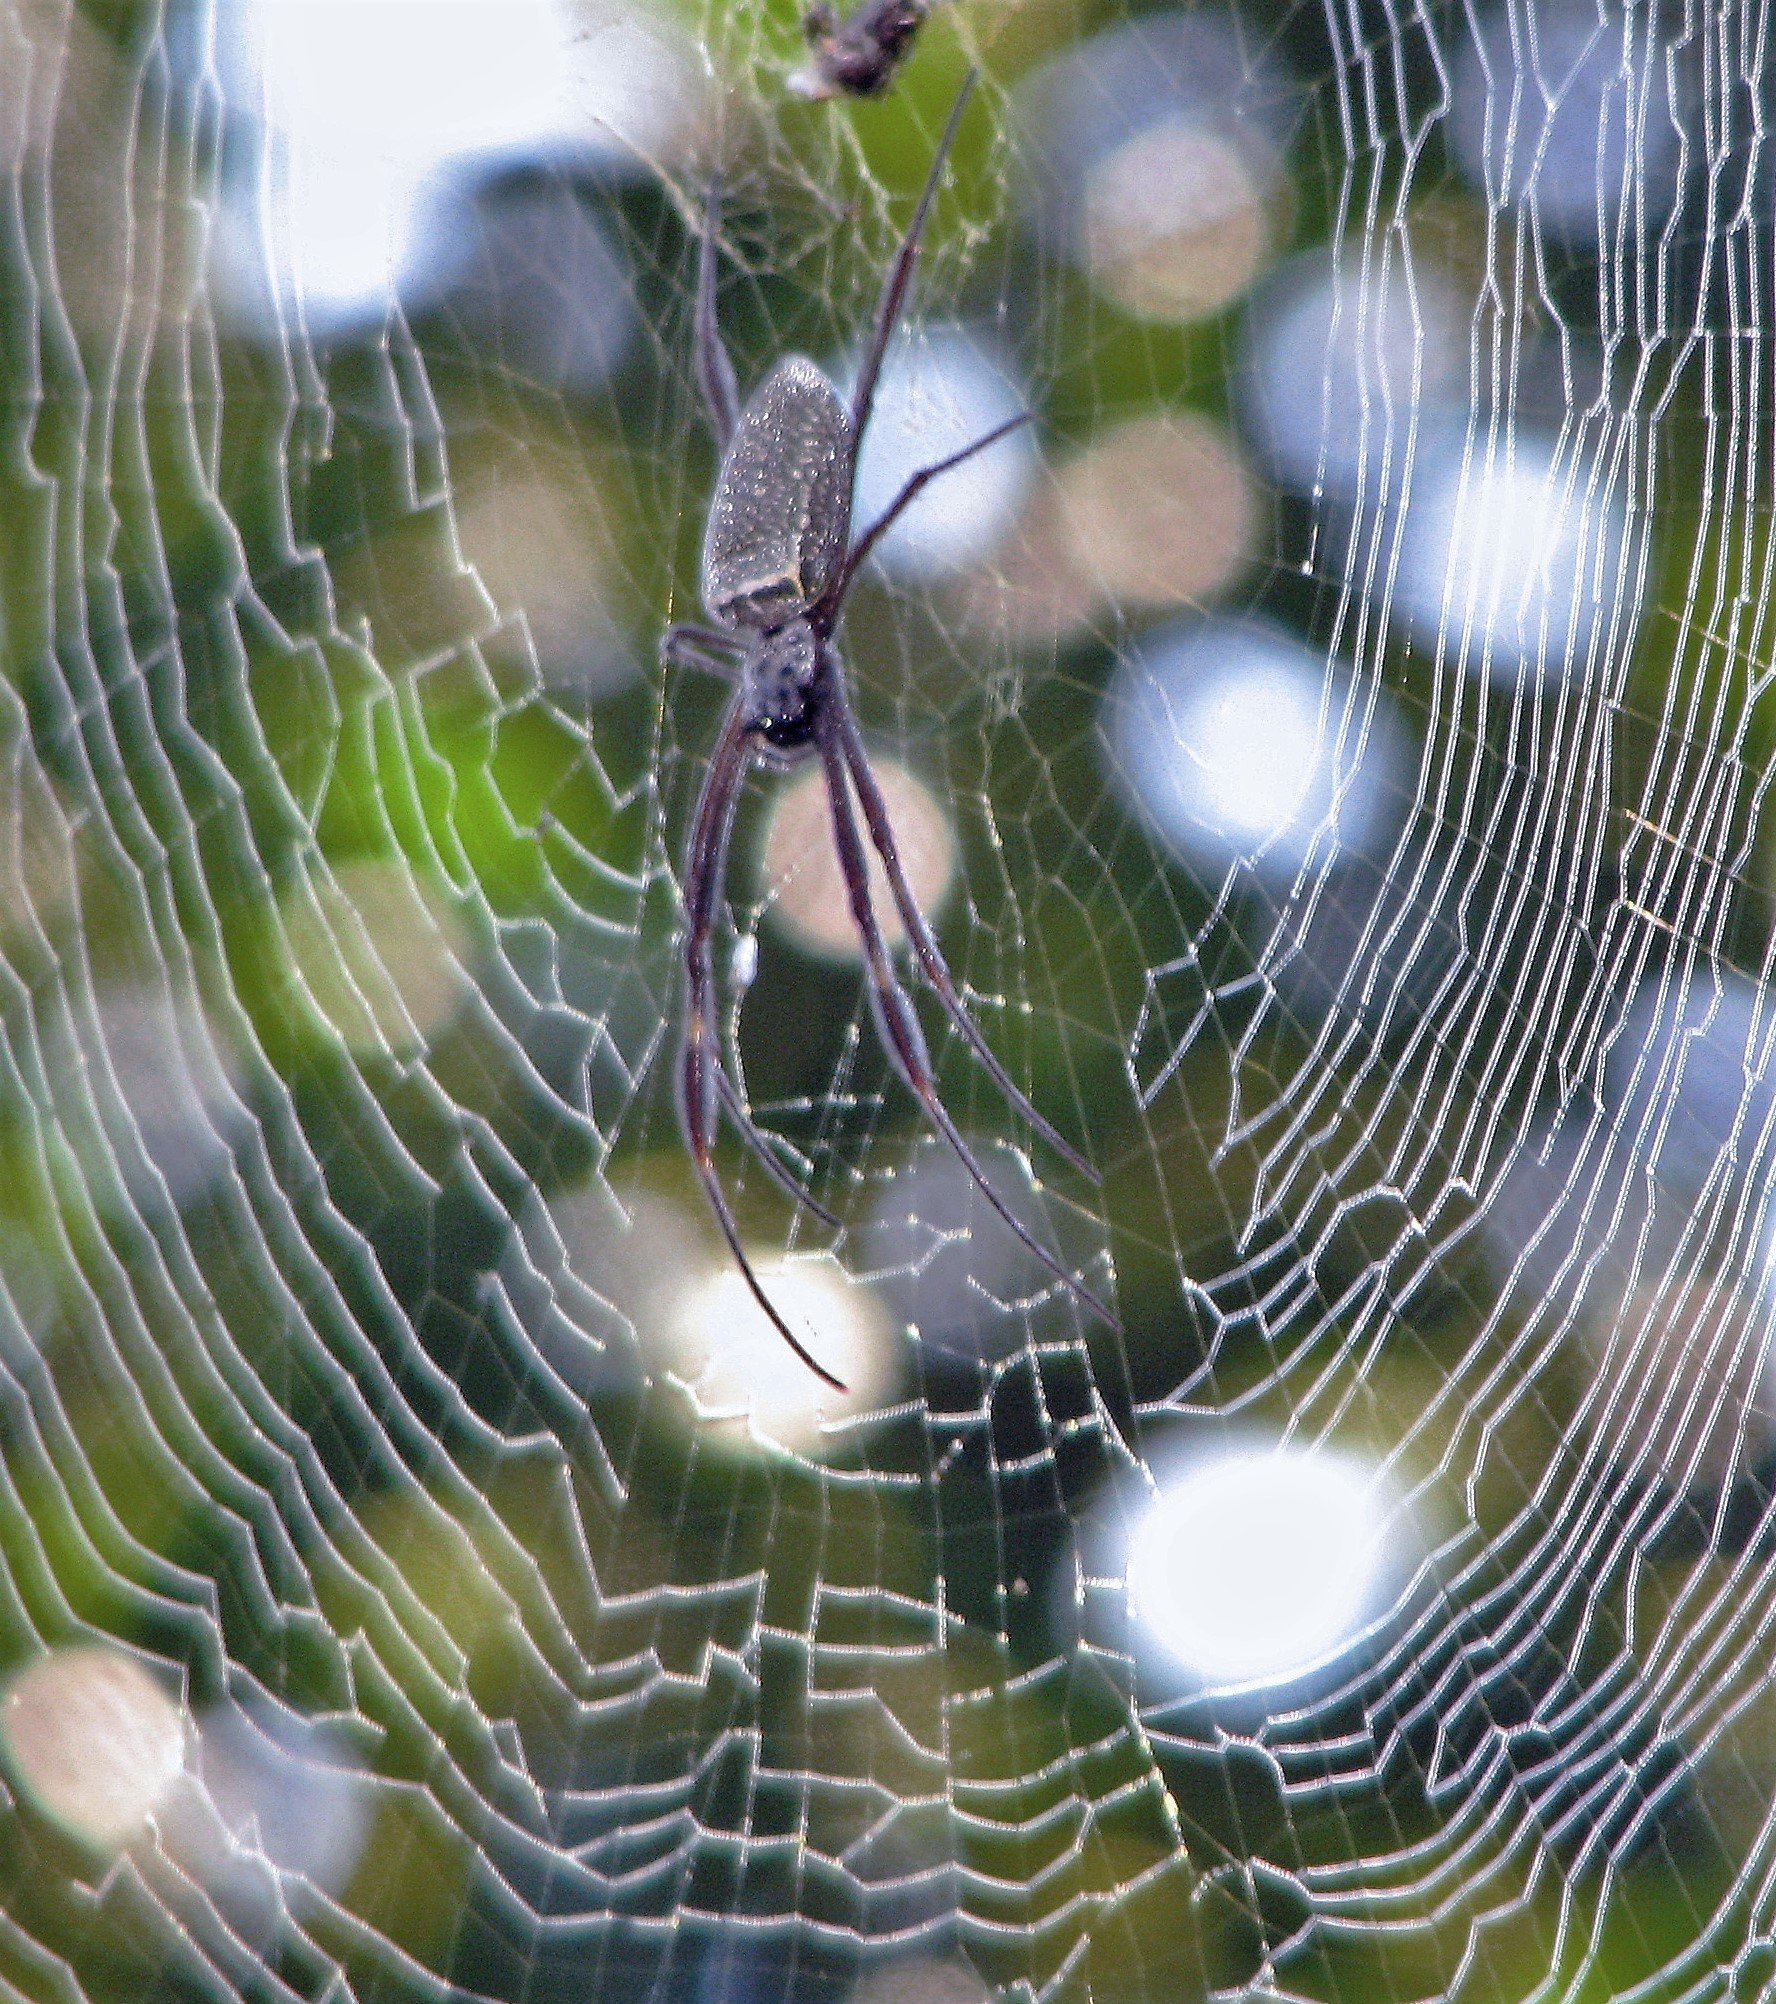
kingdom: Animalia
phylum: Arthropoda
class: Arachnida
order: Araneae
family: Araneidae
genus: Trichonephila
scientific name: Trichonephila clavipes
